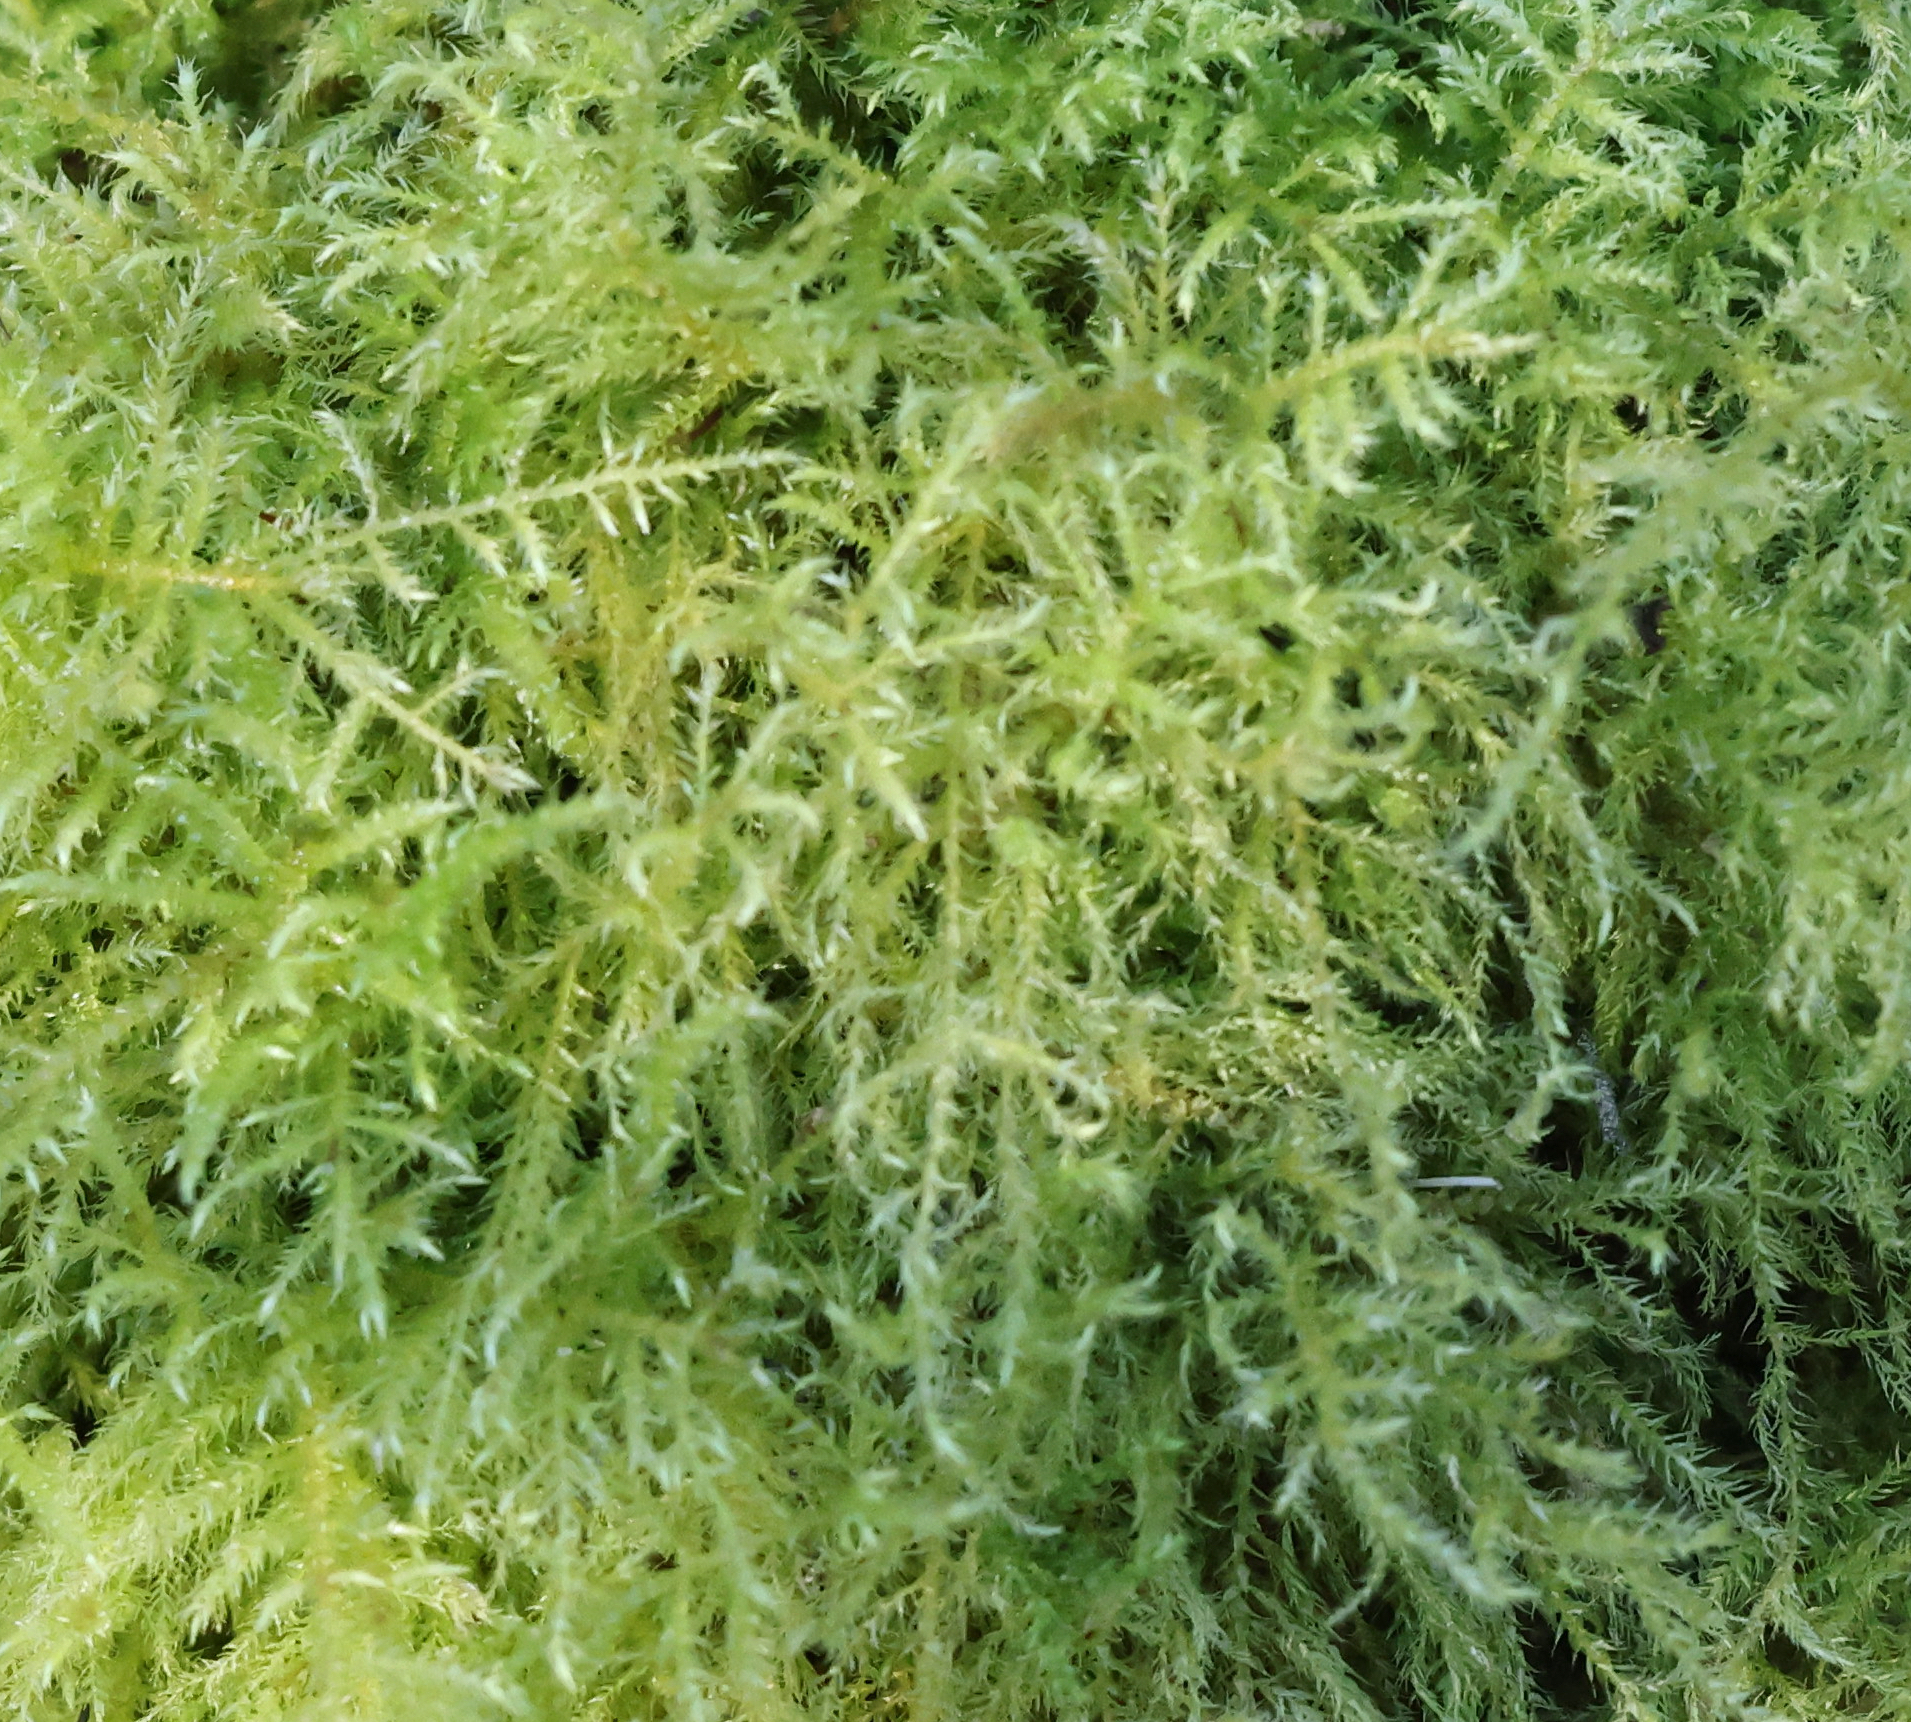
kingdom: Plantae
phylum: Bryophyta
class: Bryopsida
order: Hypnales
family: Brachytheciaceae
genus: Kindbergia
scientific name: Kindbergia praelonga
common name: Slender beaked moss
